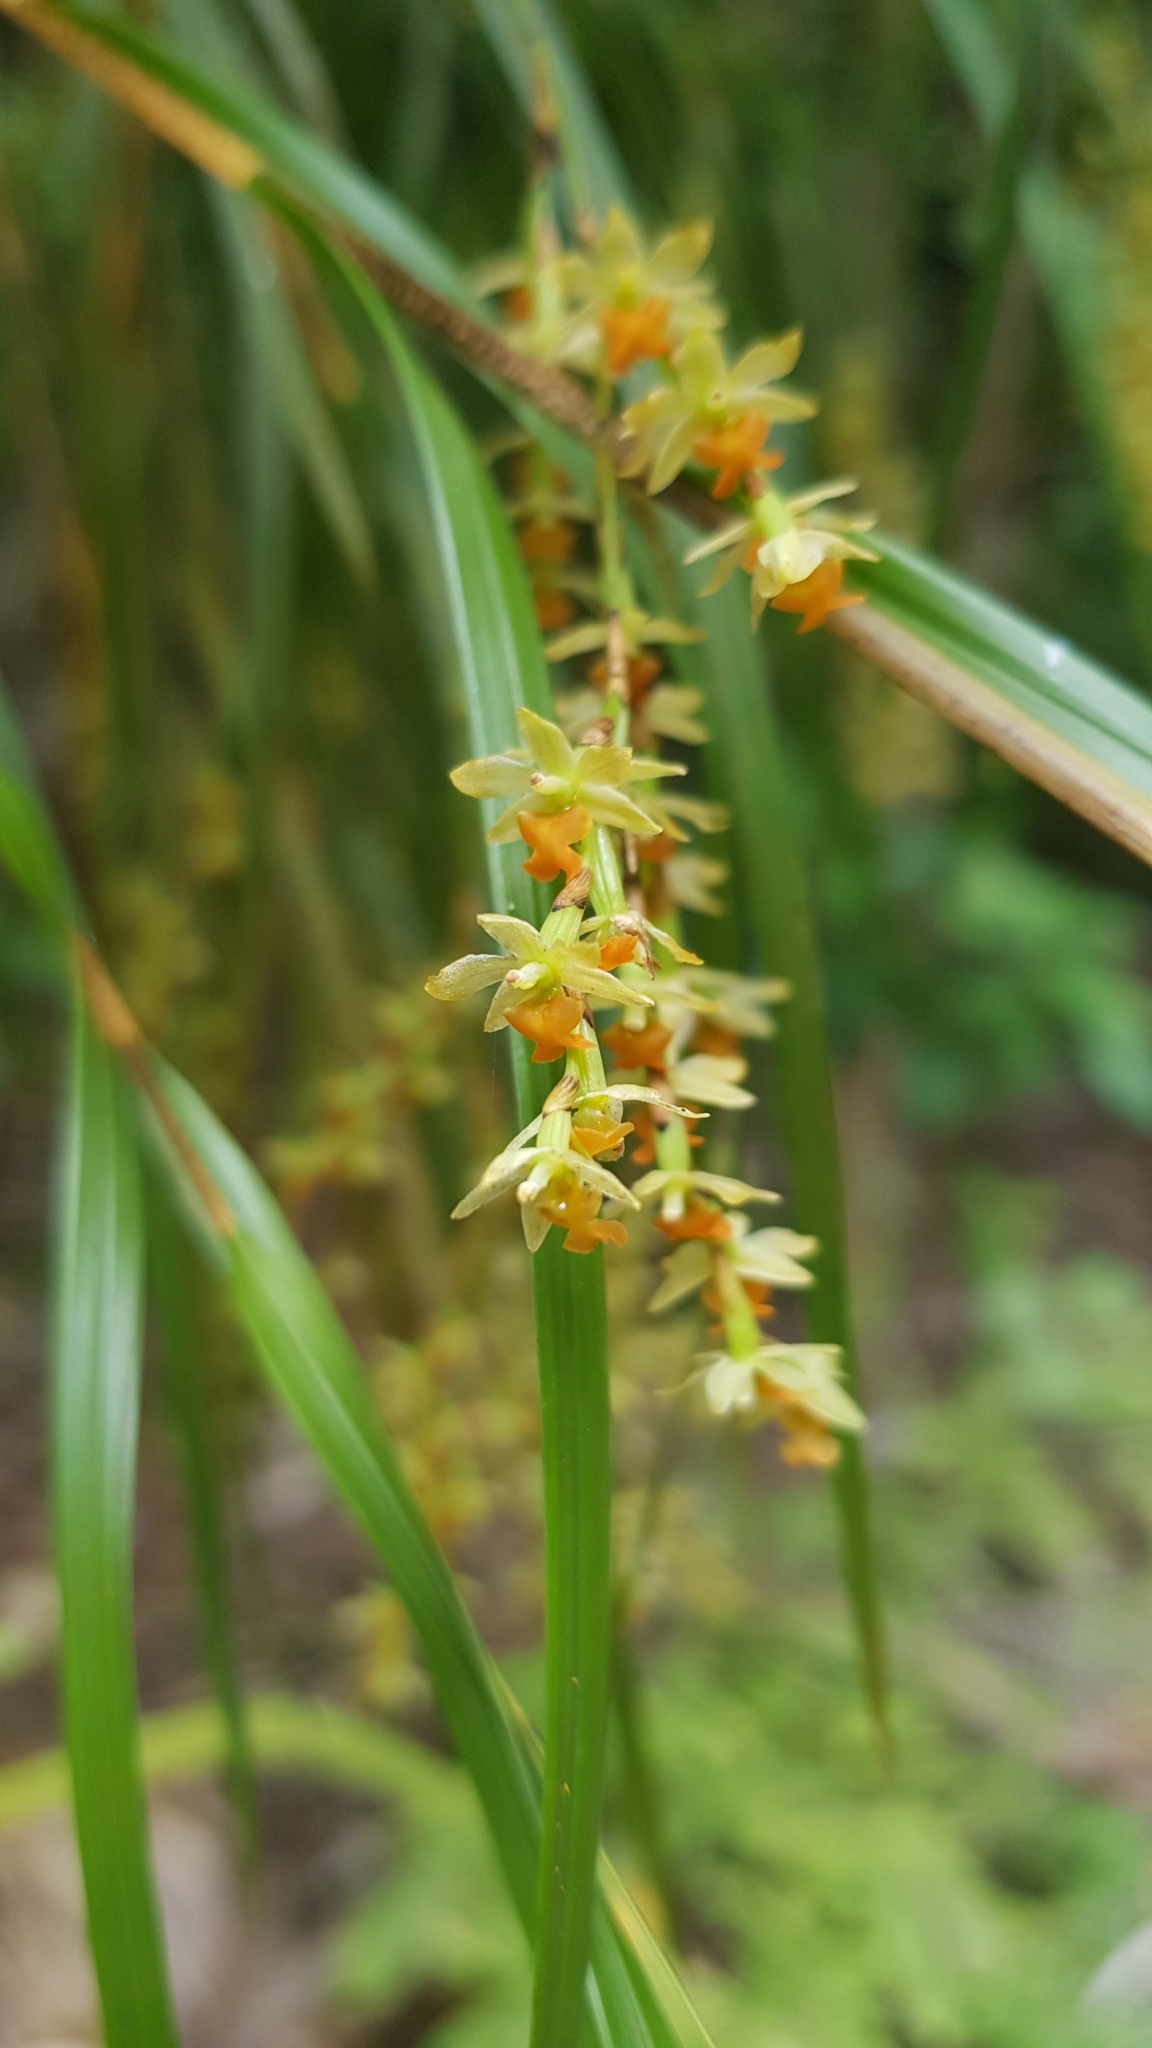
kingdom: Plantae
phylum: Tracheophyta
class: Liliopsida
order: Asparagales
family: Orchidaceae
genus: Earina
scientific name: Earina mucronata
